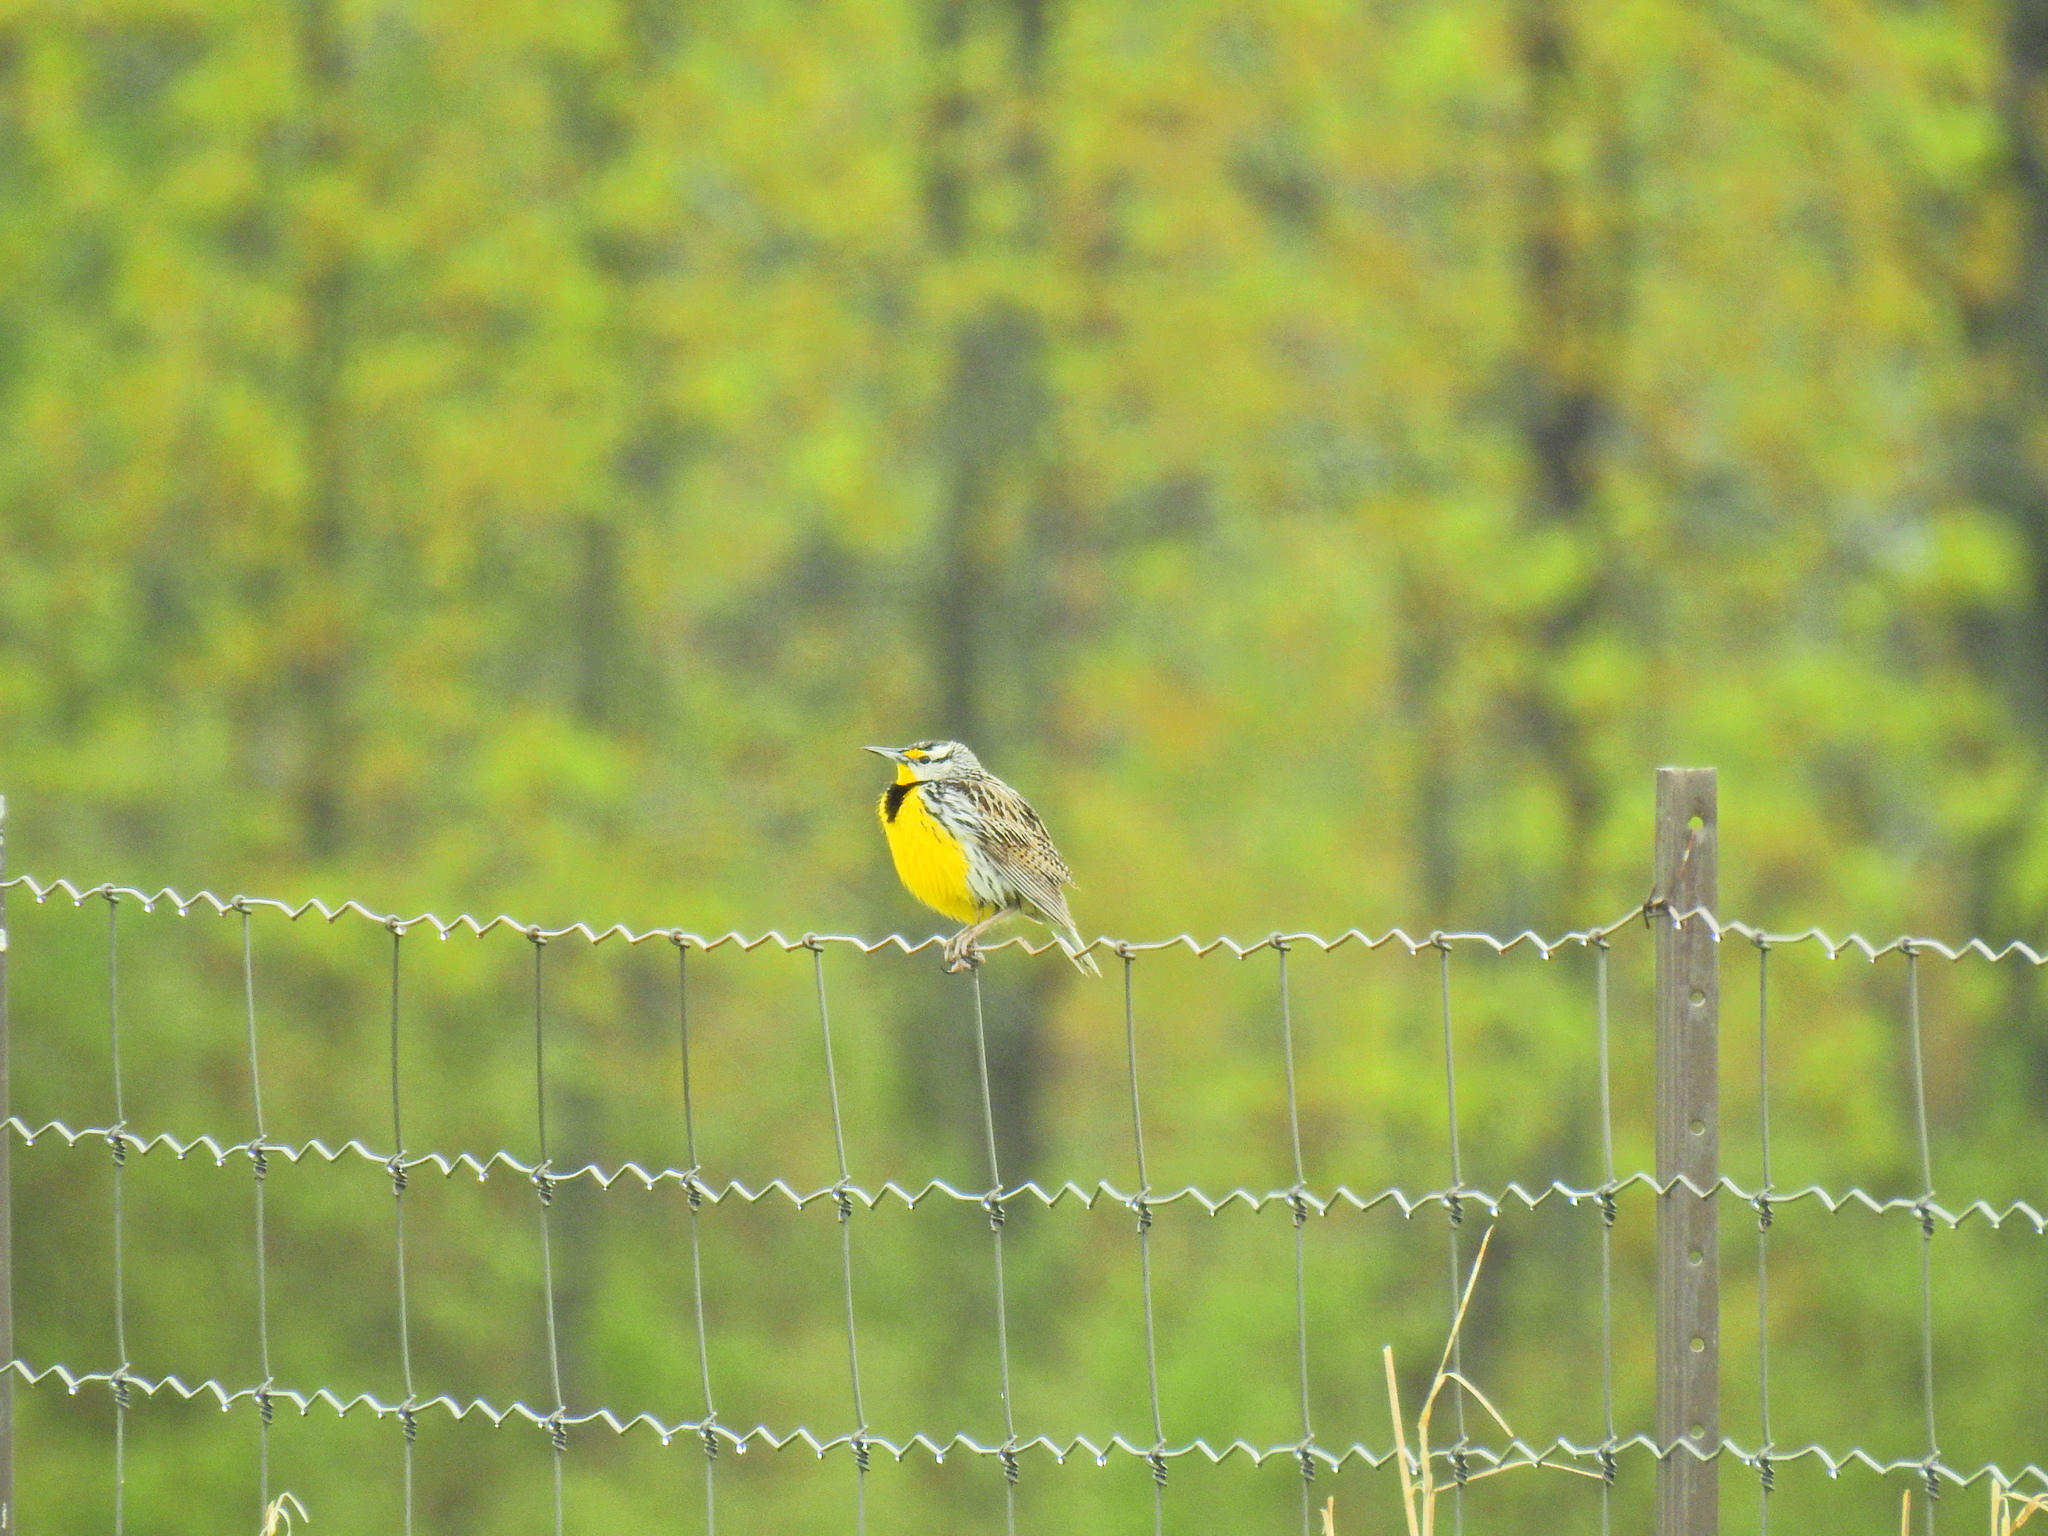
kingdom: Animalia
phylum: Chordata
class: Aves
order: Passeriformes
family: Icteridae
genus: Sturnella
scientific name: Sturnella magna
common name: Eastern meadowlark
